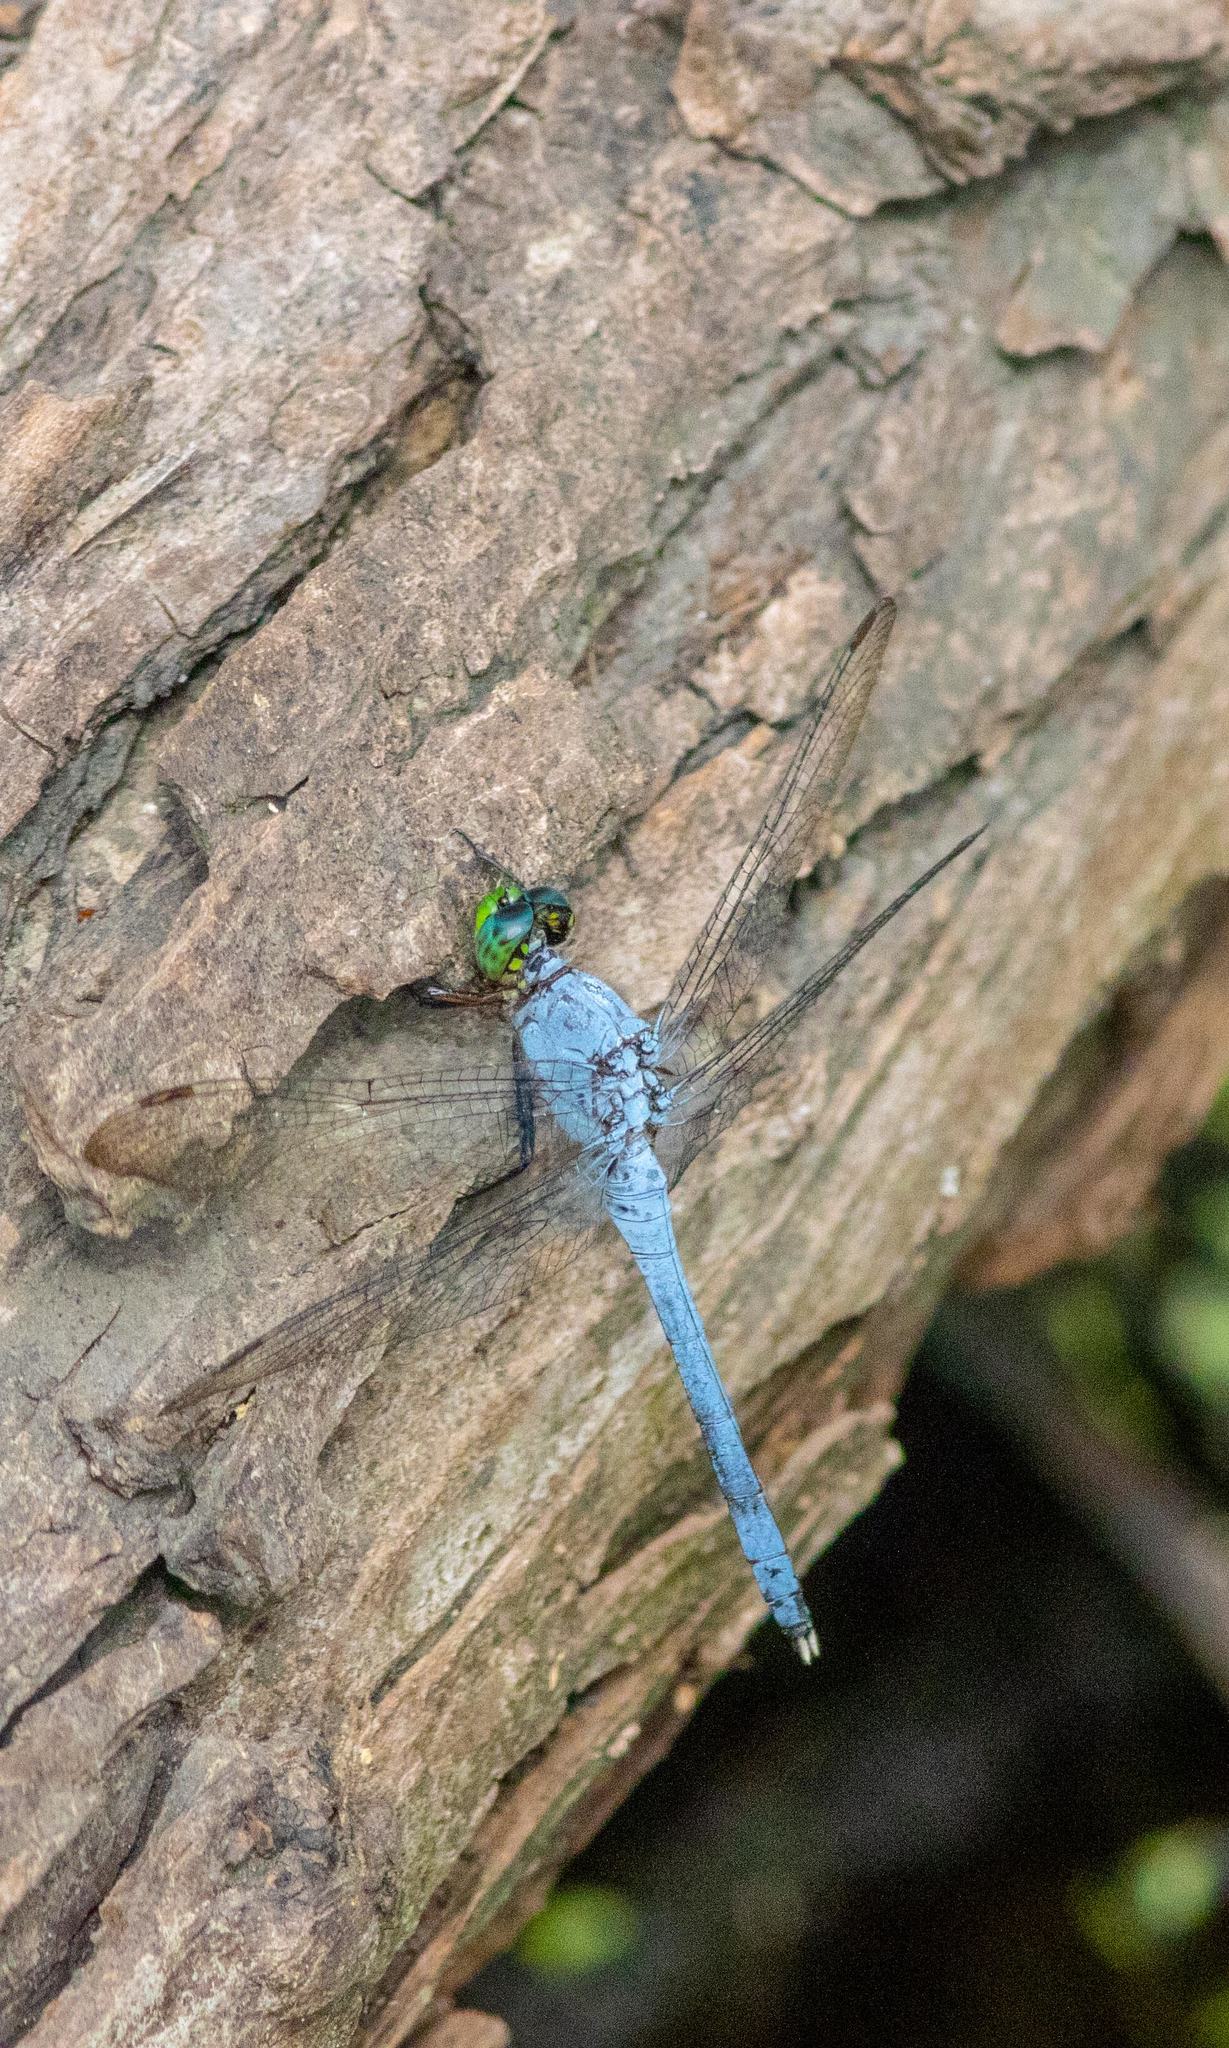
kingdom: Animalia
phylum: Arthropoda
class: Insecta
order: Odonata
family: Libellulidae
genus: Erythemis
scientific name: Erythemis simplicicollis
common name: Eastern pondhawk
